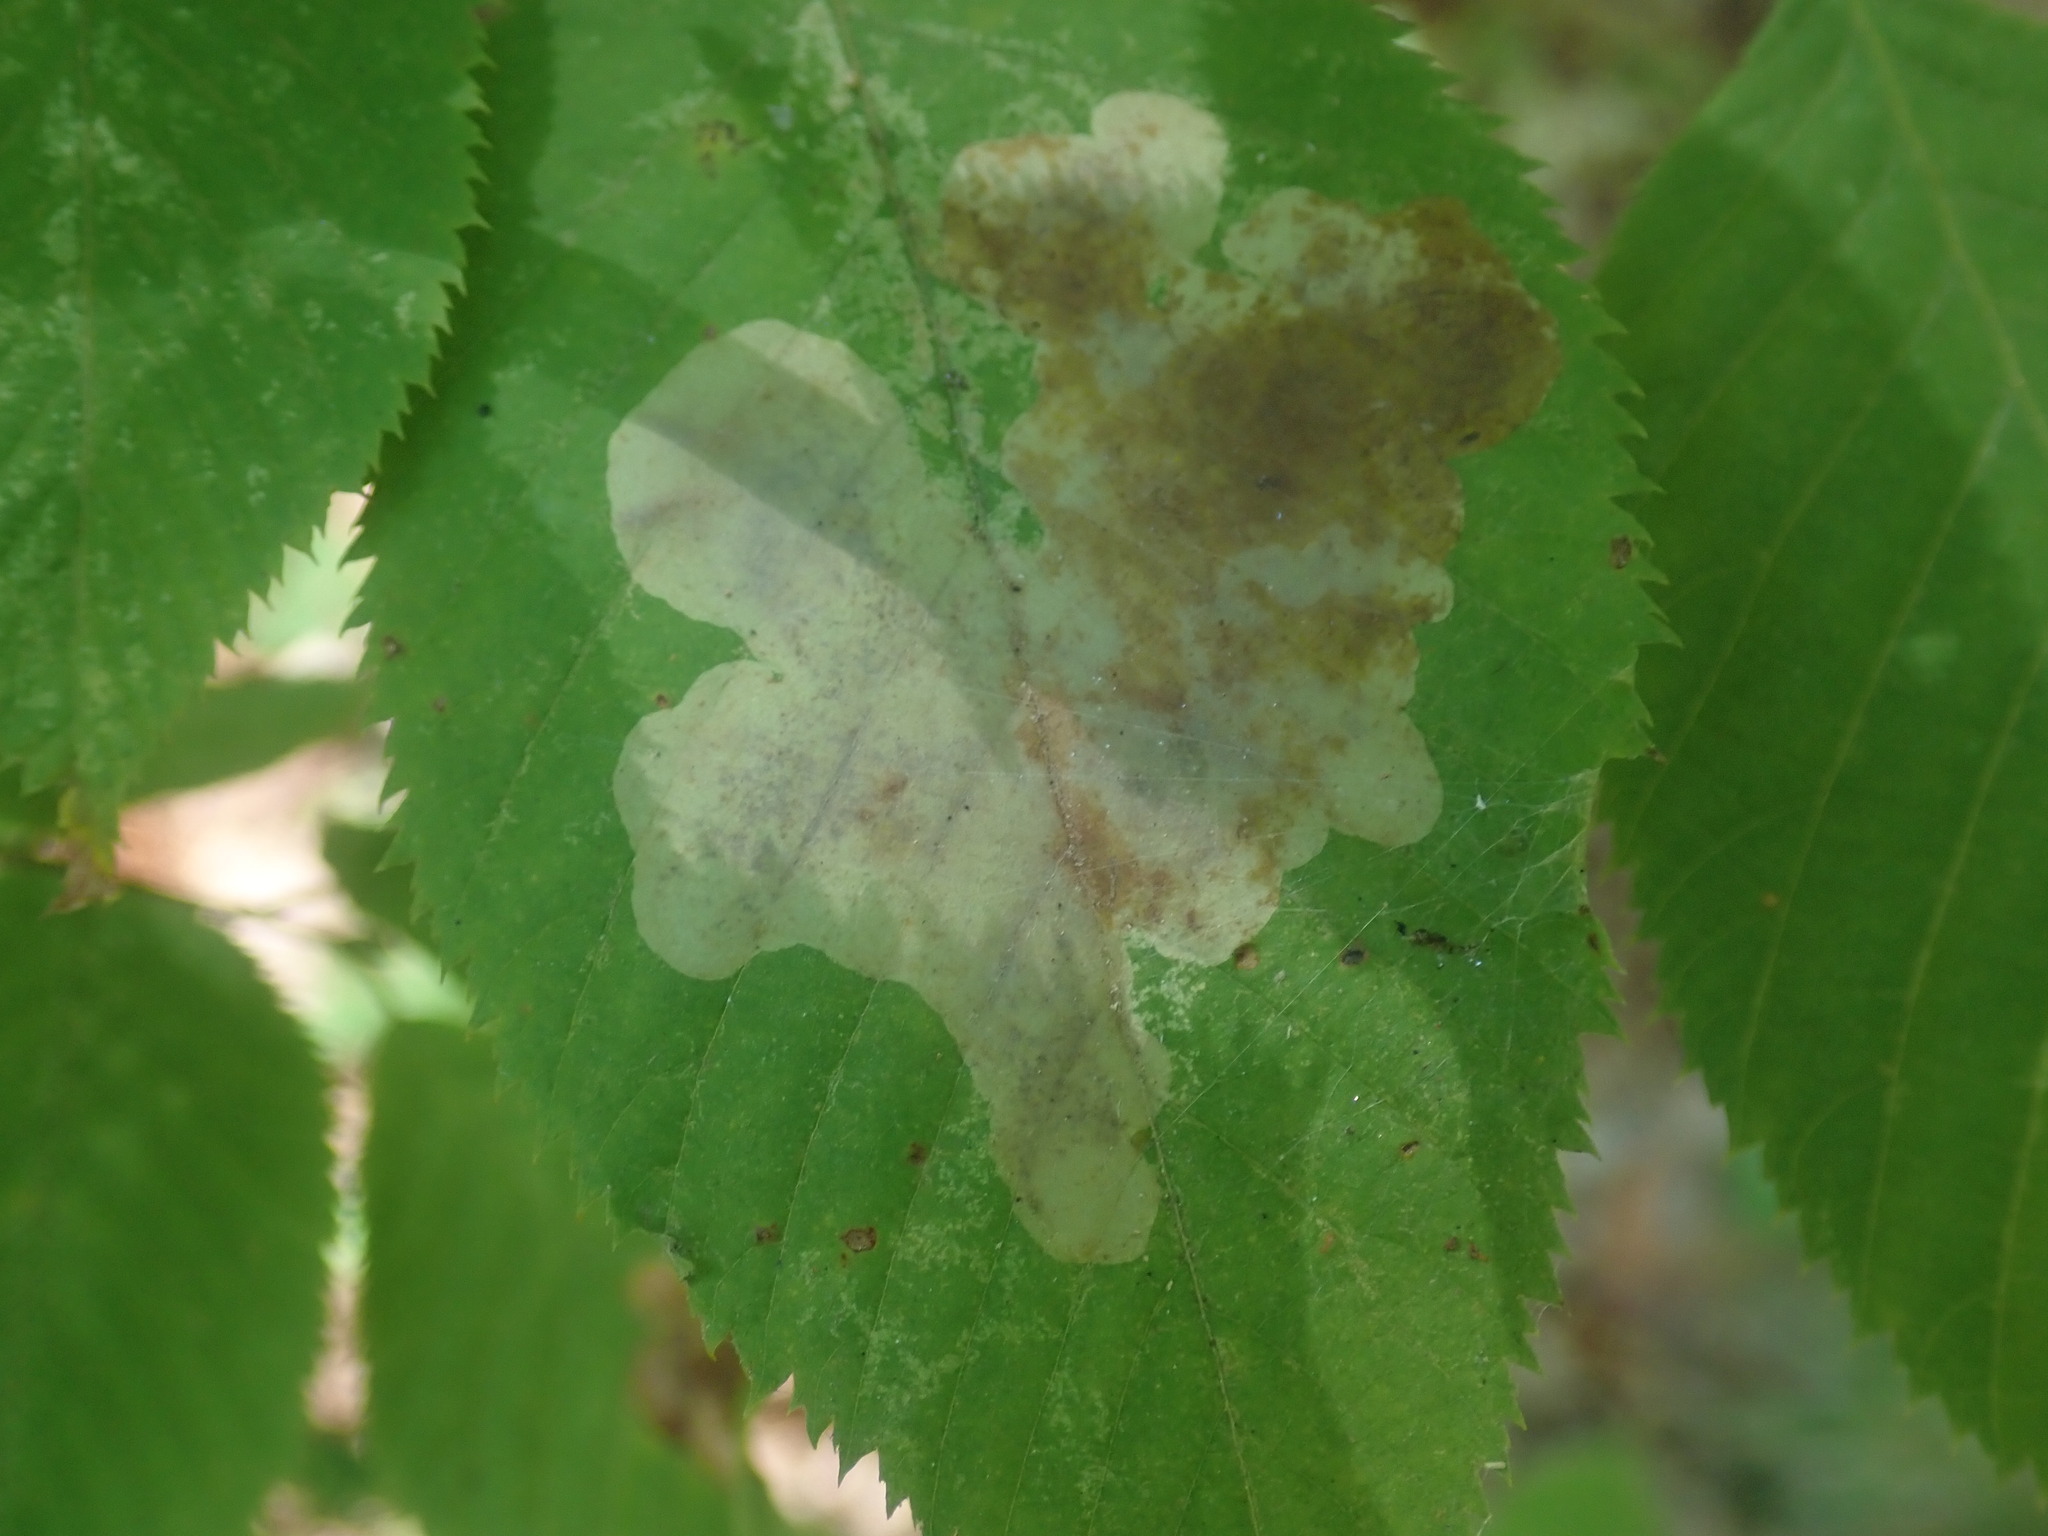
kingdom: Animalia
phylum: Arthropoda
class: Insecta
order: Lepidoptera
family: Gracillariidae
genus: Cameraria
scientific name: Cameraria
